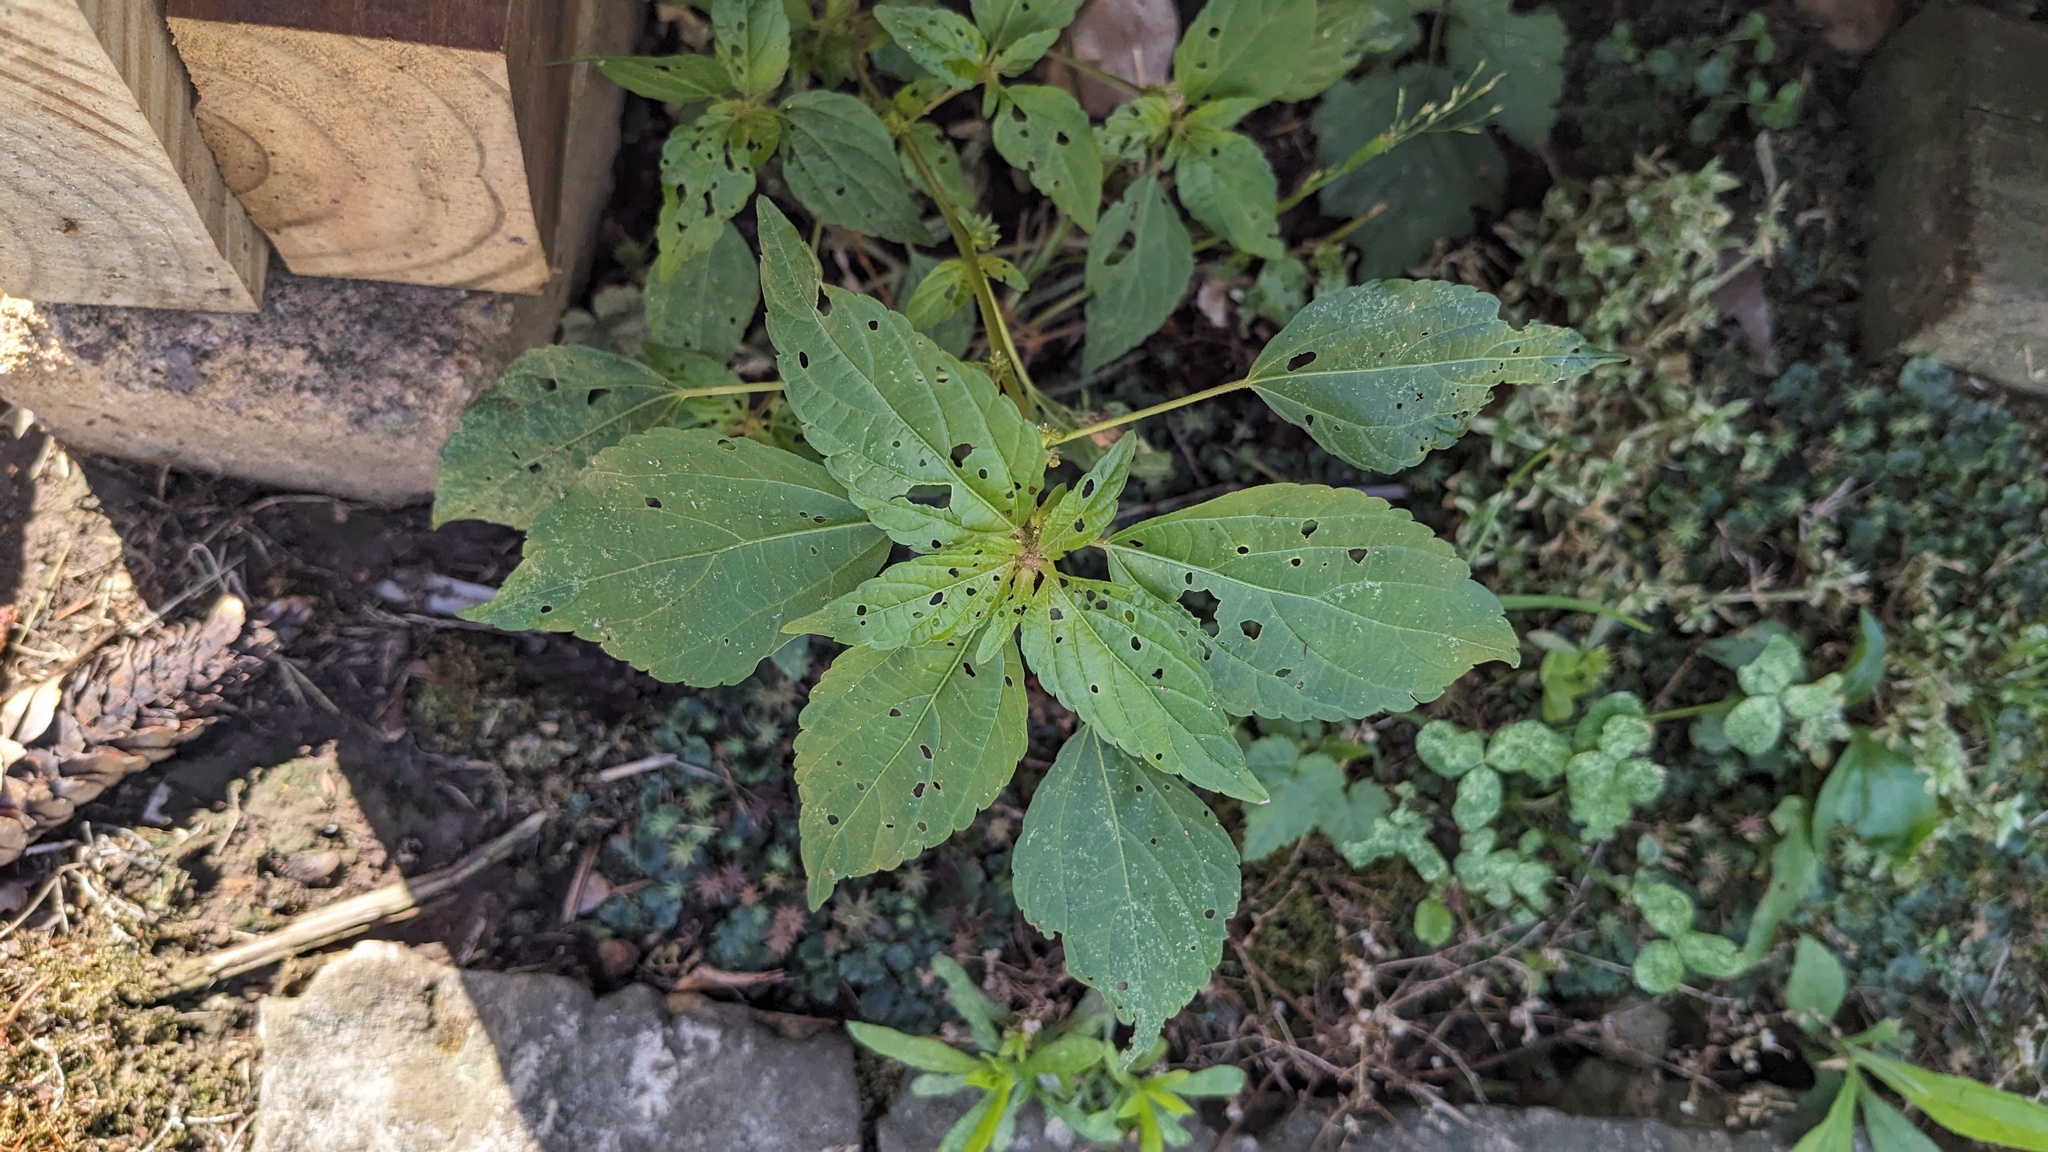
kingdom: Plantae
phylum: Tracheophyta
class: Magnoliopsida
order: Malpighiales
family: Euphorbiaceae
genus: Acalypha
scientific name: Acalypha rhomboidea
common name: Rhombic copperleaf
